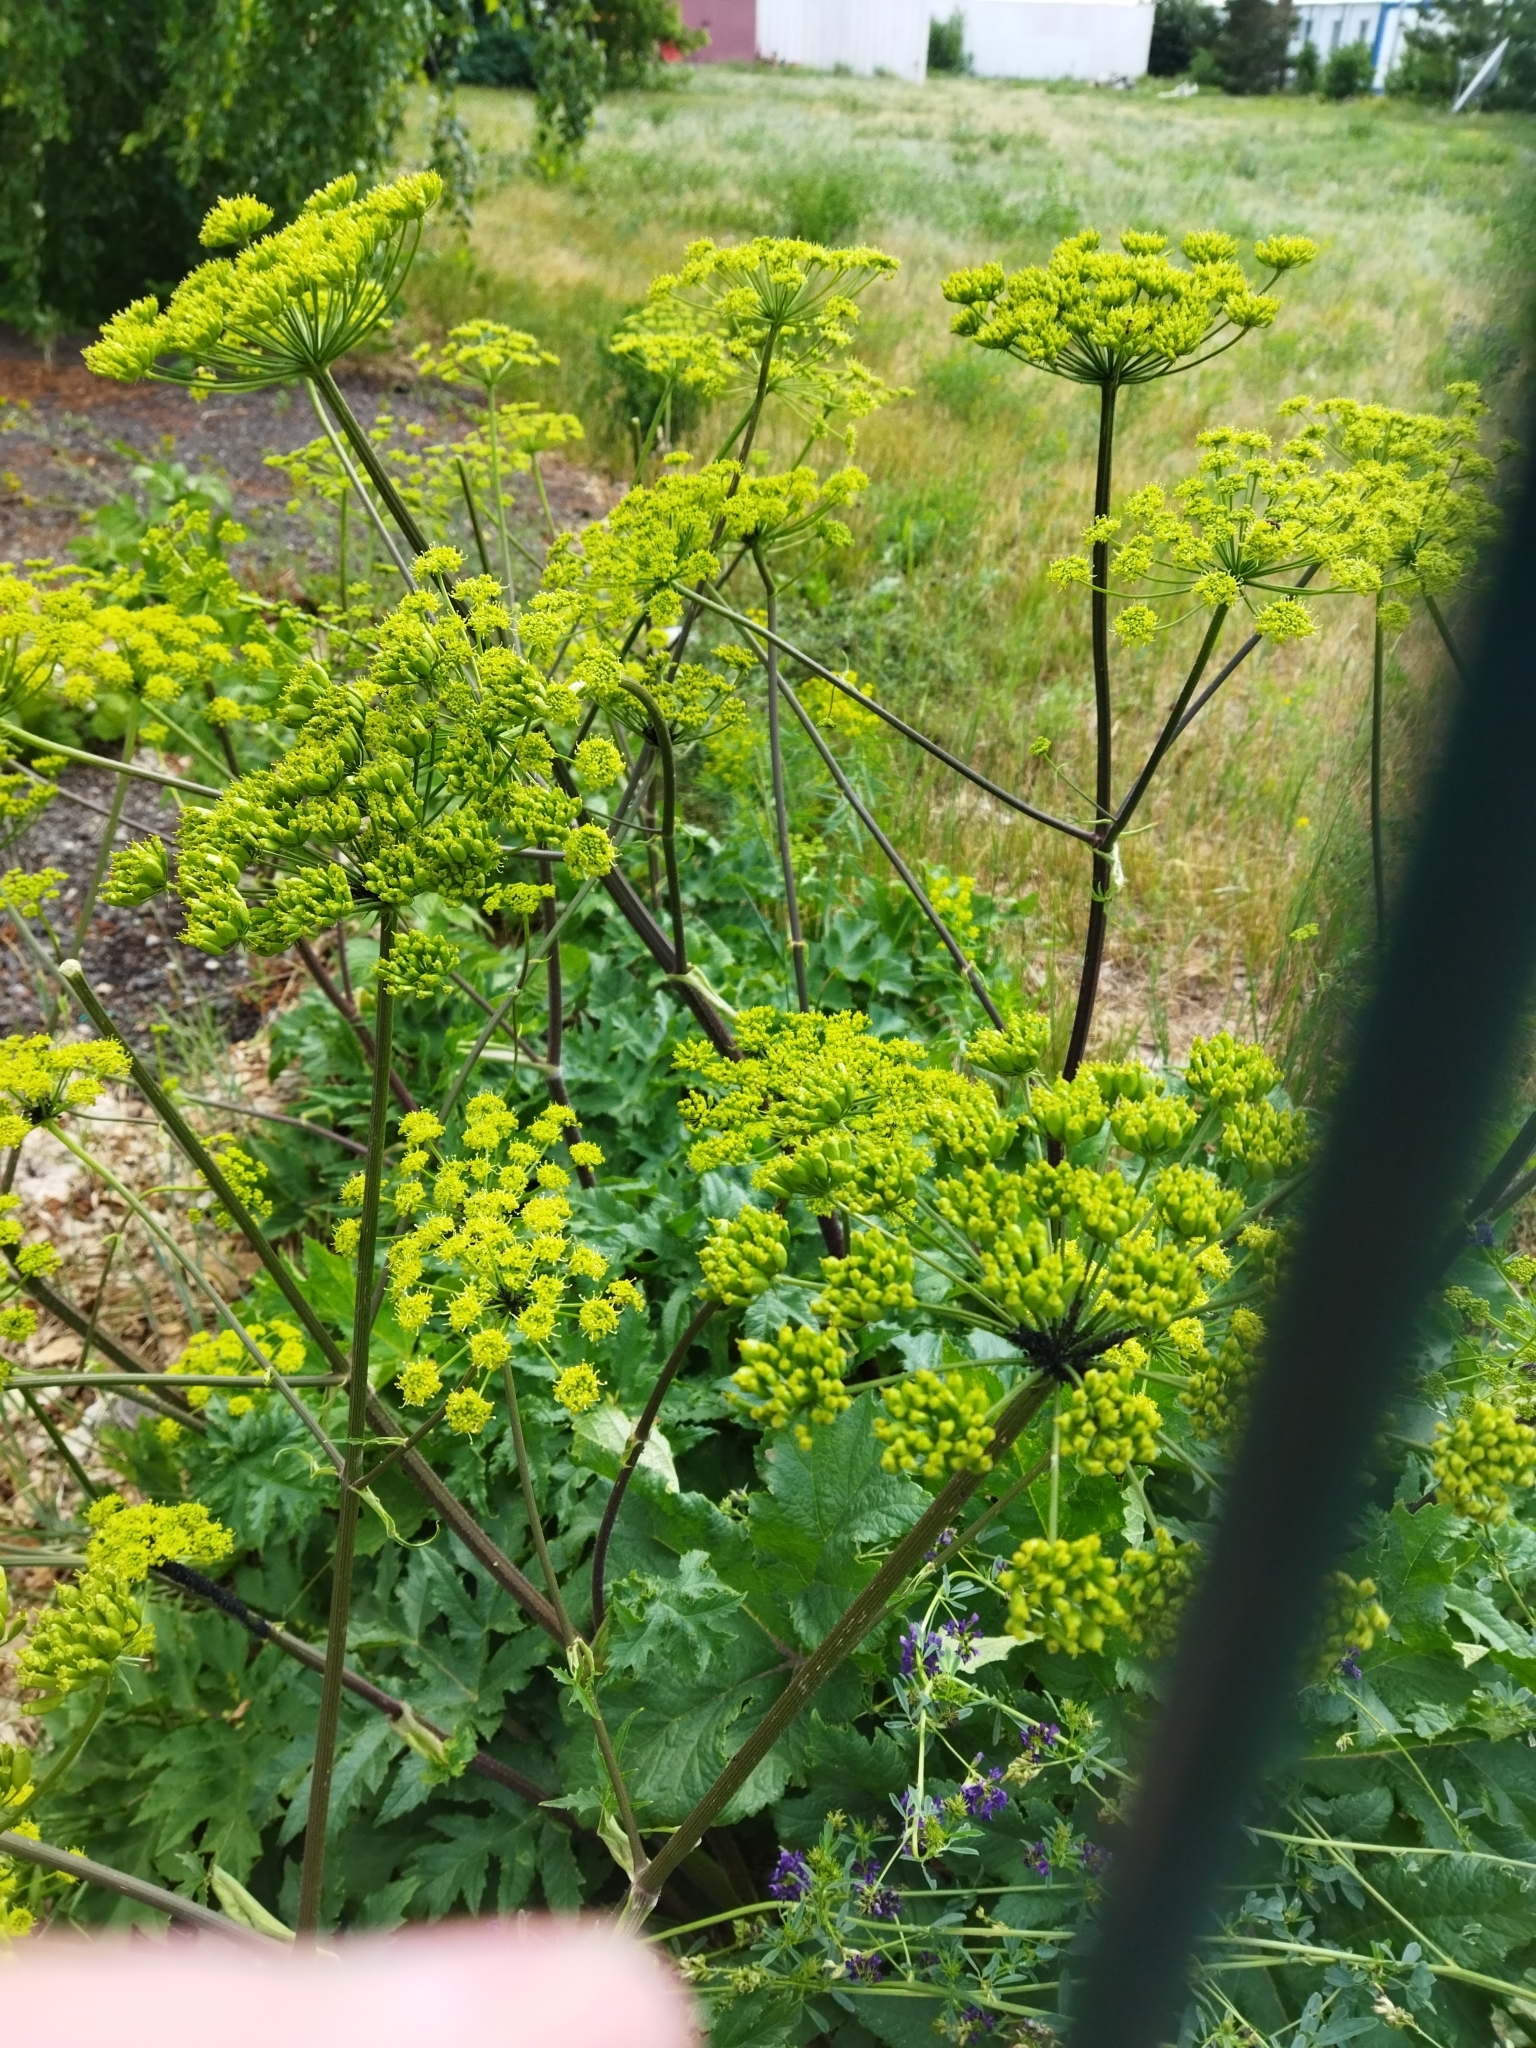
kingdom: Plantae
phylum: Tracheophyta
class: Magnoliopsida
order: Apiales
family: Apiaceae
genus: Heracleum
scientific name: Heracleum sphondylium
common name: Hogweed
